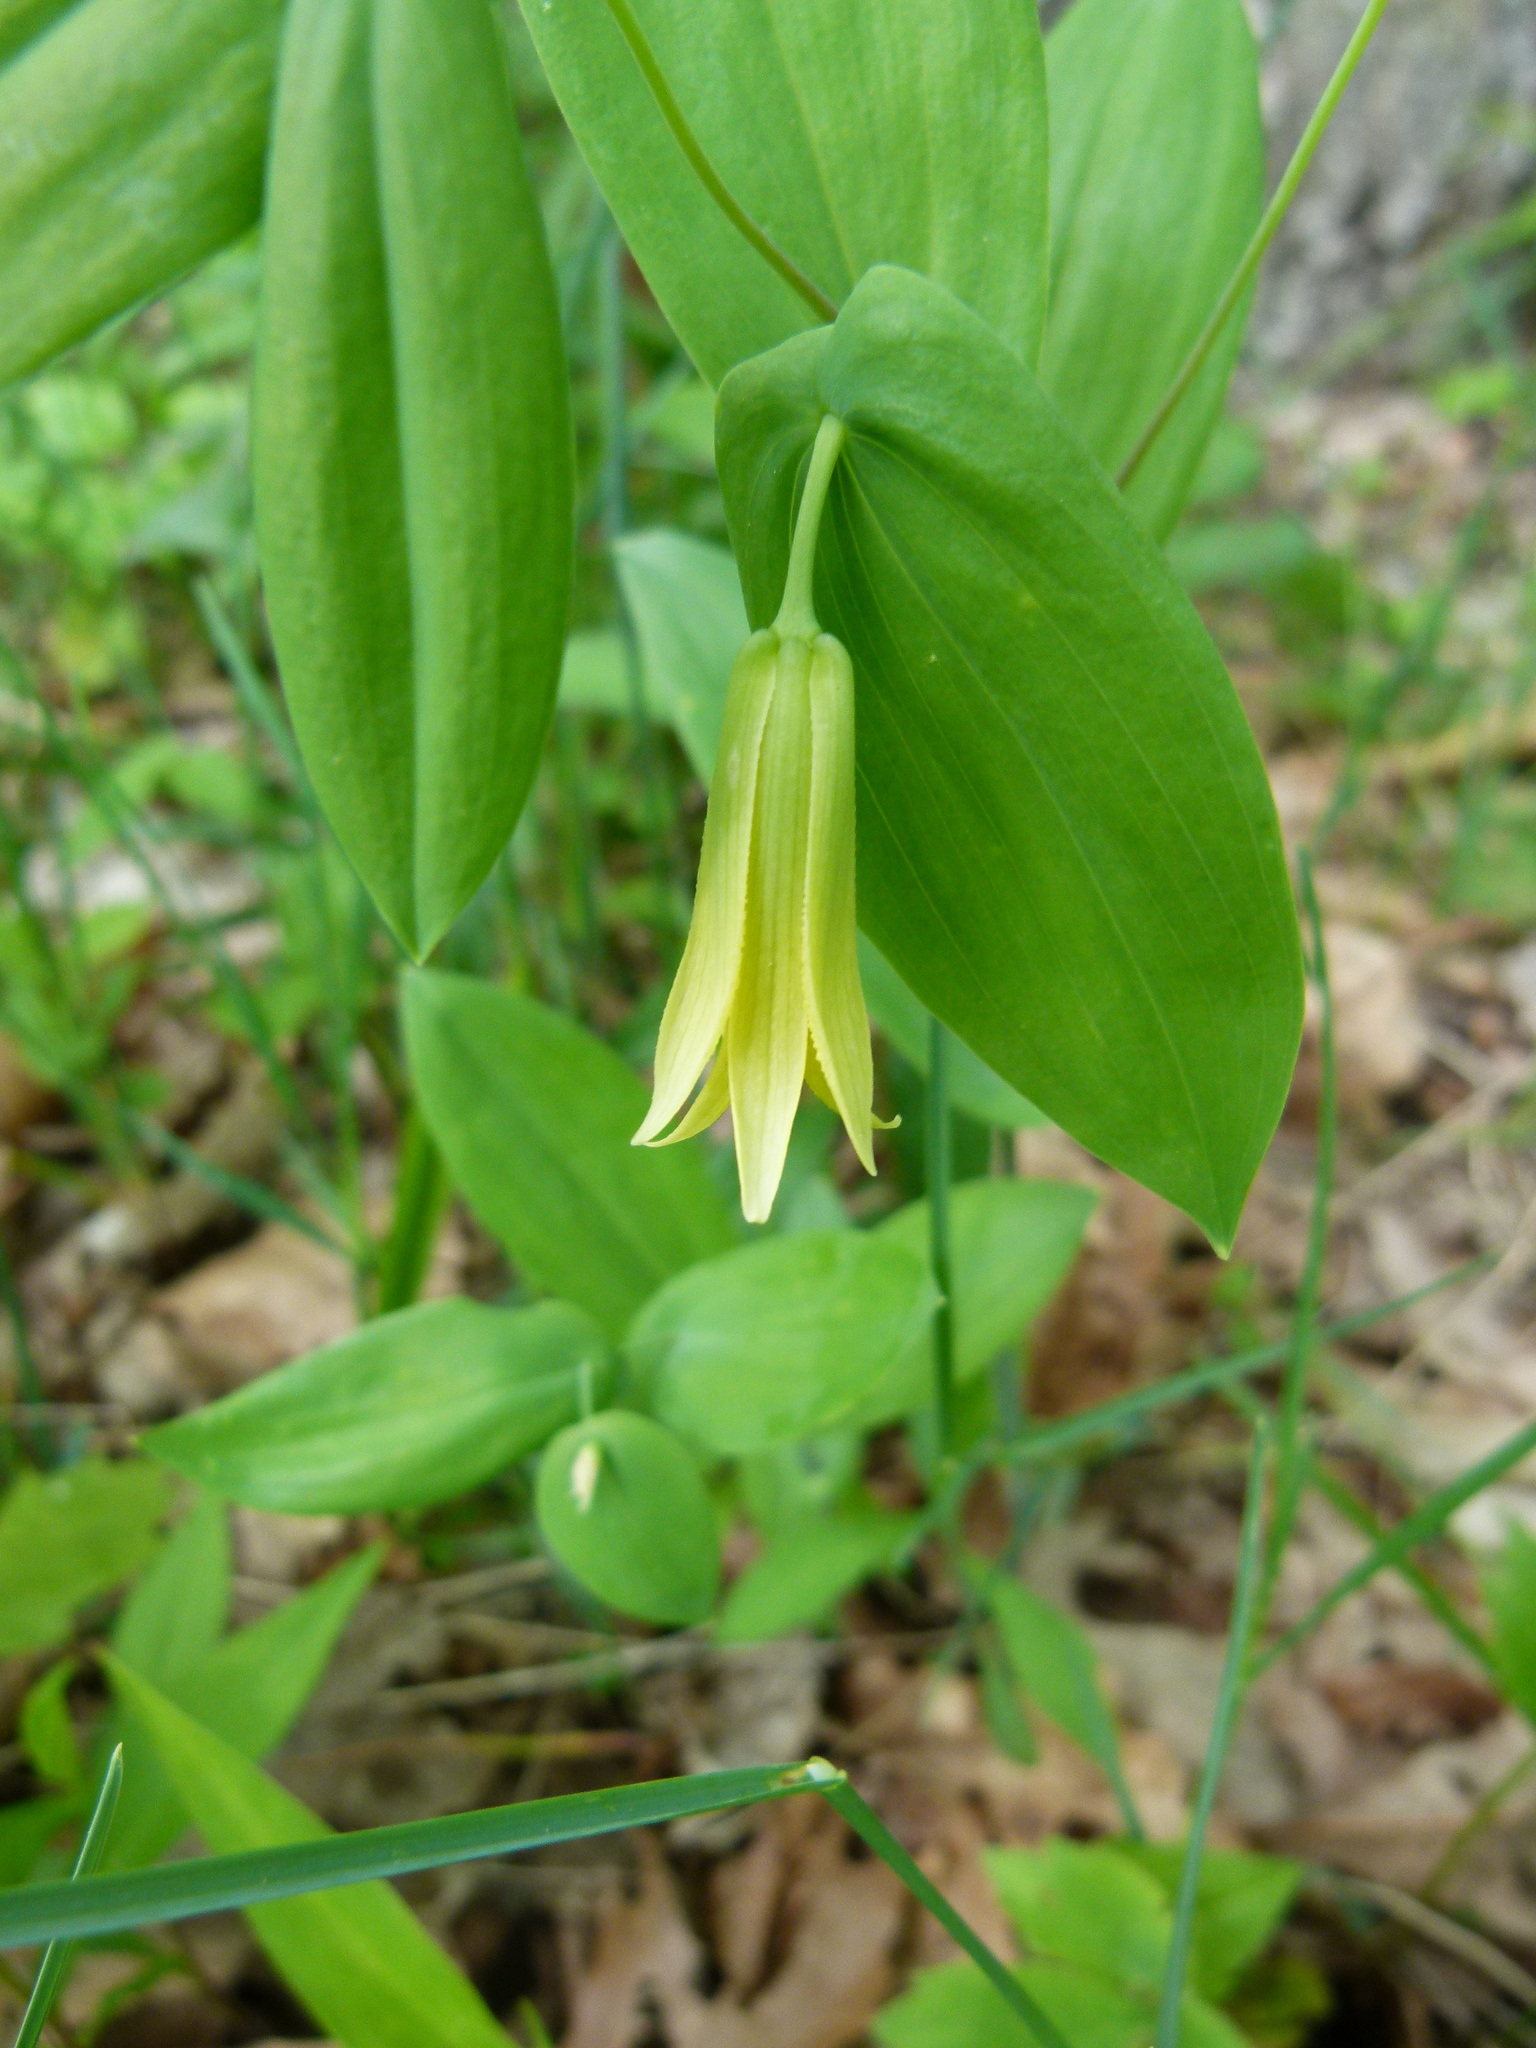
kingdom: Plantae
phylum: Tracheophyta
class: Liliopsida
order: Liliales
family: Colchicaceae
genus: Uvularia
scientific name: Uvularia perfoliata
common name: Perfoliate bellwort
